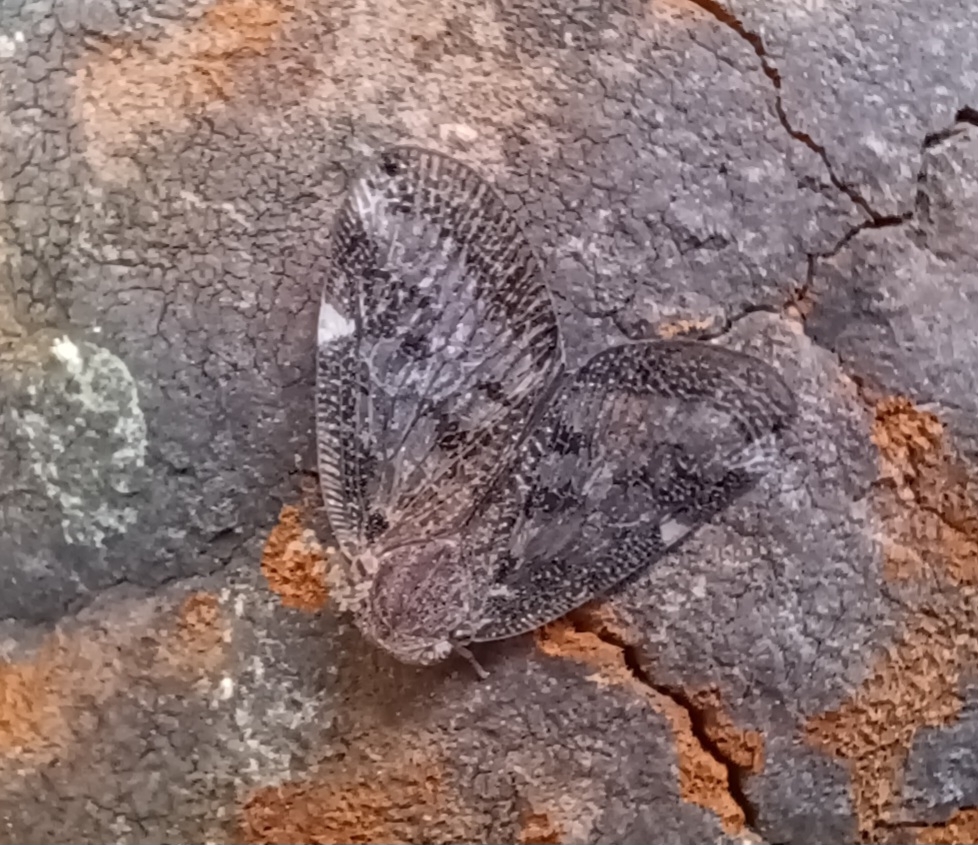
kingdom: Animalia
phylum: Arthropoda
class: Insecta
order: Hemiptera
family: Ricaniidae
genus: Scolypopa
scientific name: Scolypopa australis
